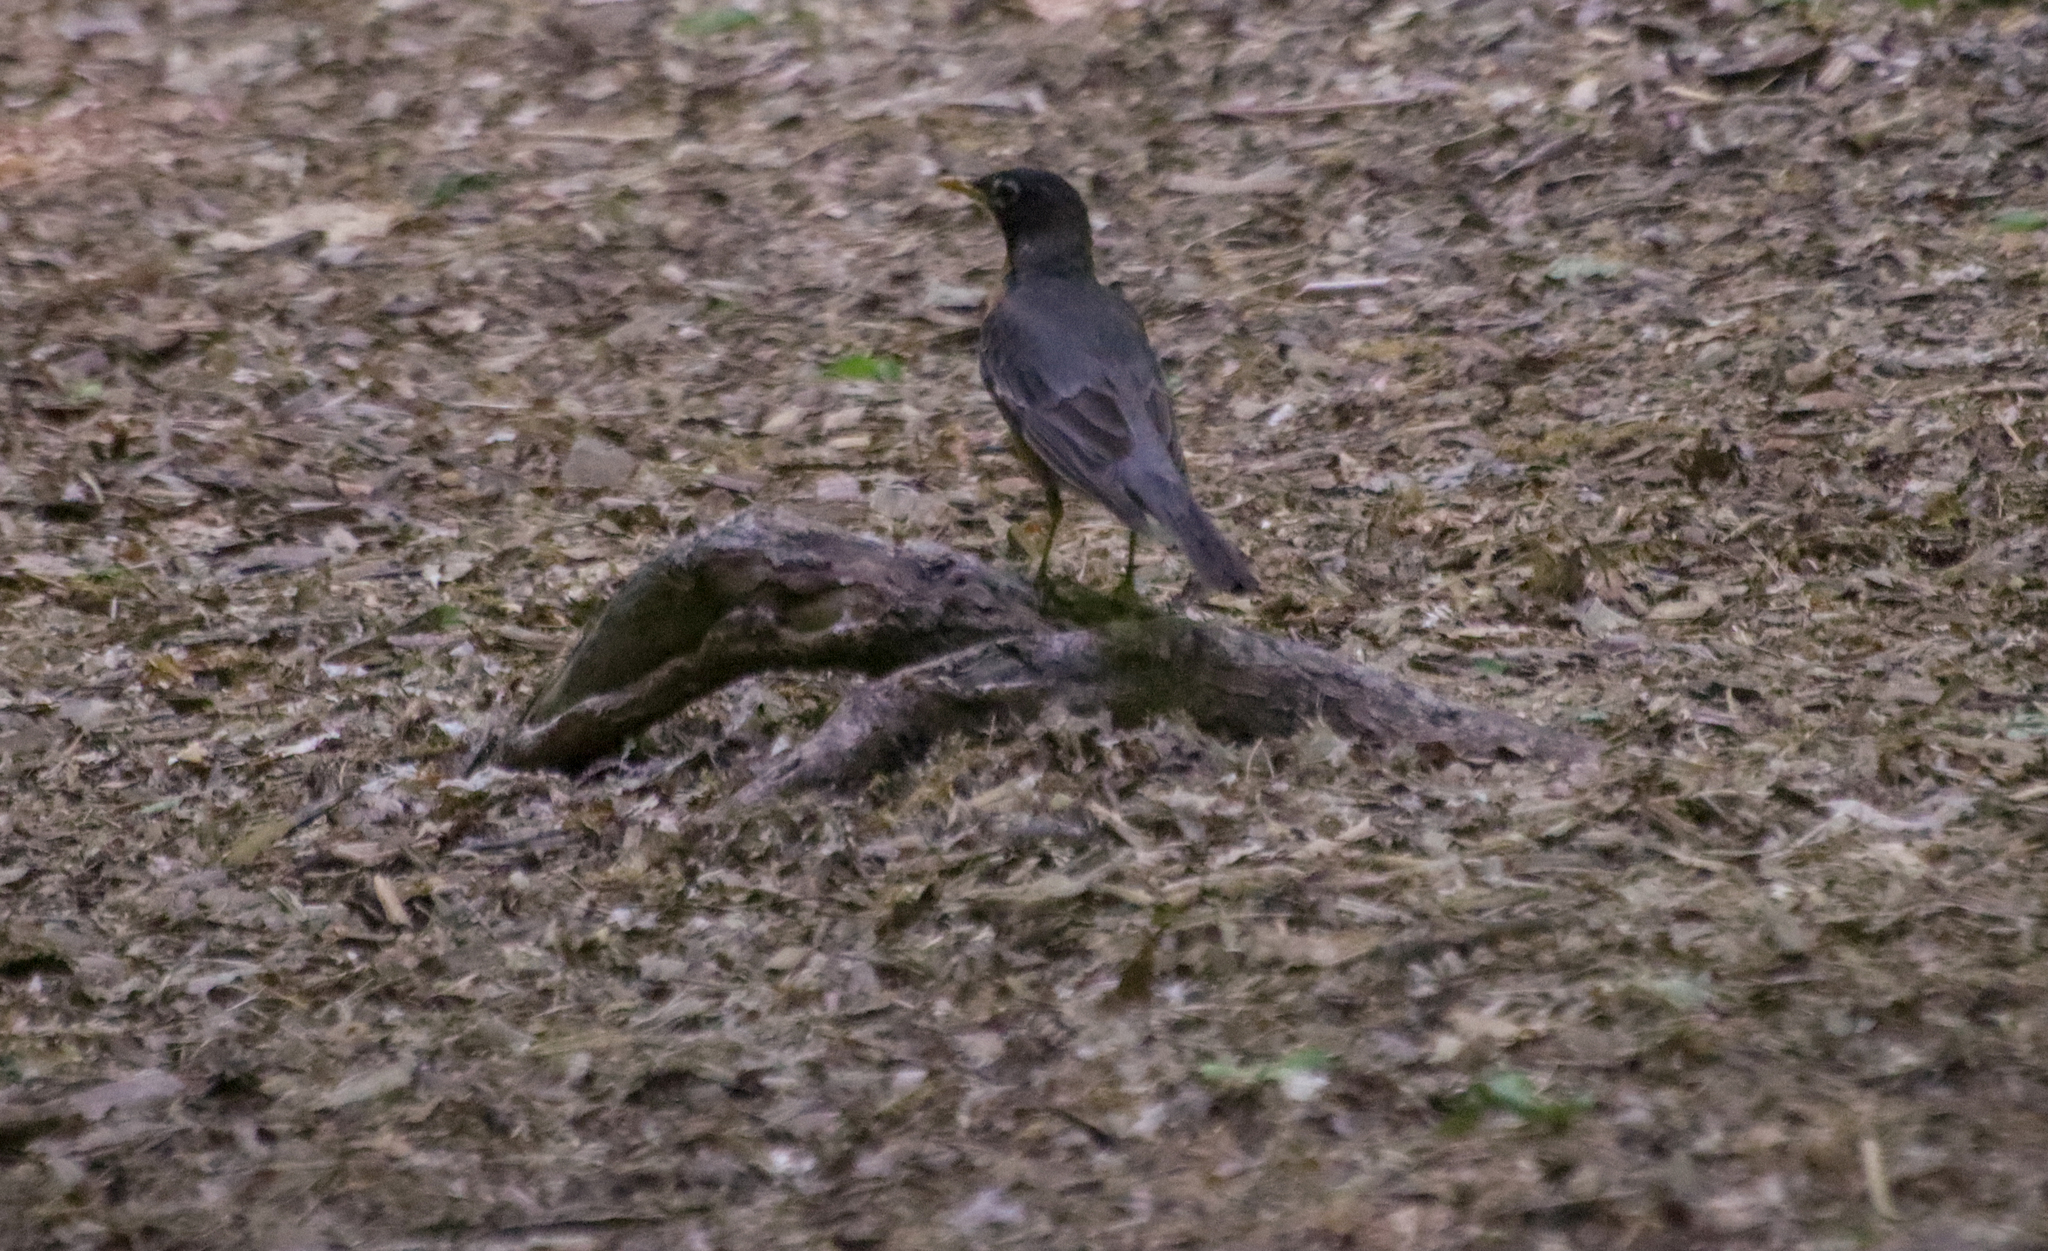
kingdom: Animalia
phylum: Chordata
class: Aves
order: Passeriformes
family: Turdidae
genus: Turdus
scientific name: Turdus migratorius
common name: American robin
